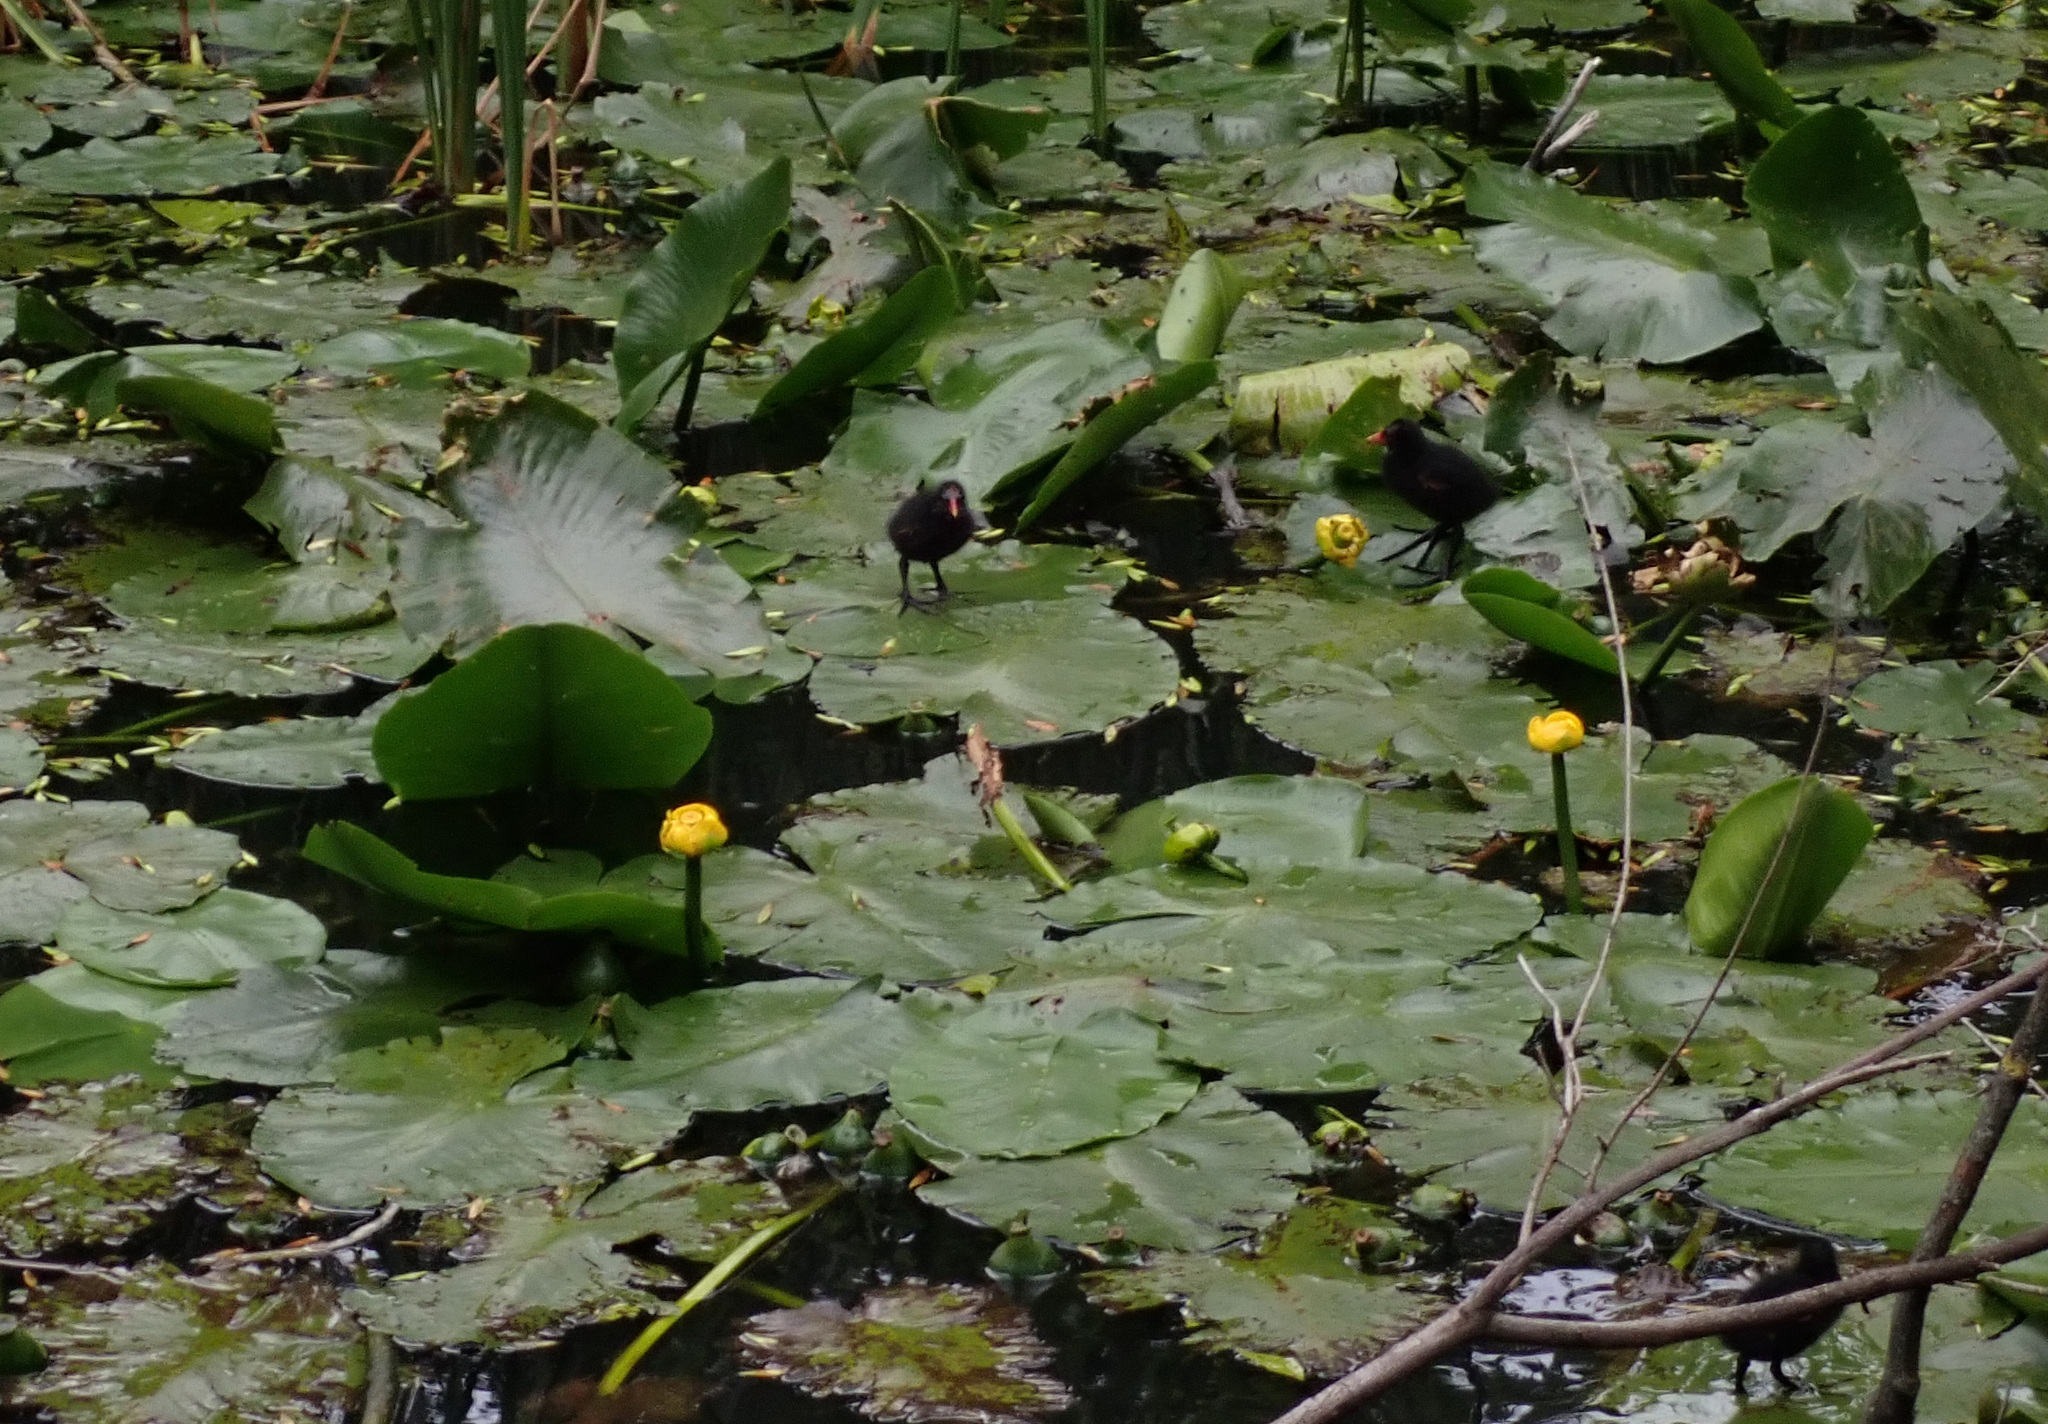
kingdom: Animalia
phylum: Chordata
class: Aves
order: Gruiformes
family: Rallidae
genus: Gallinula
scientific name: Gallinula chloropus
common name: Common moorhen
